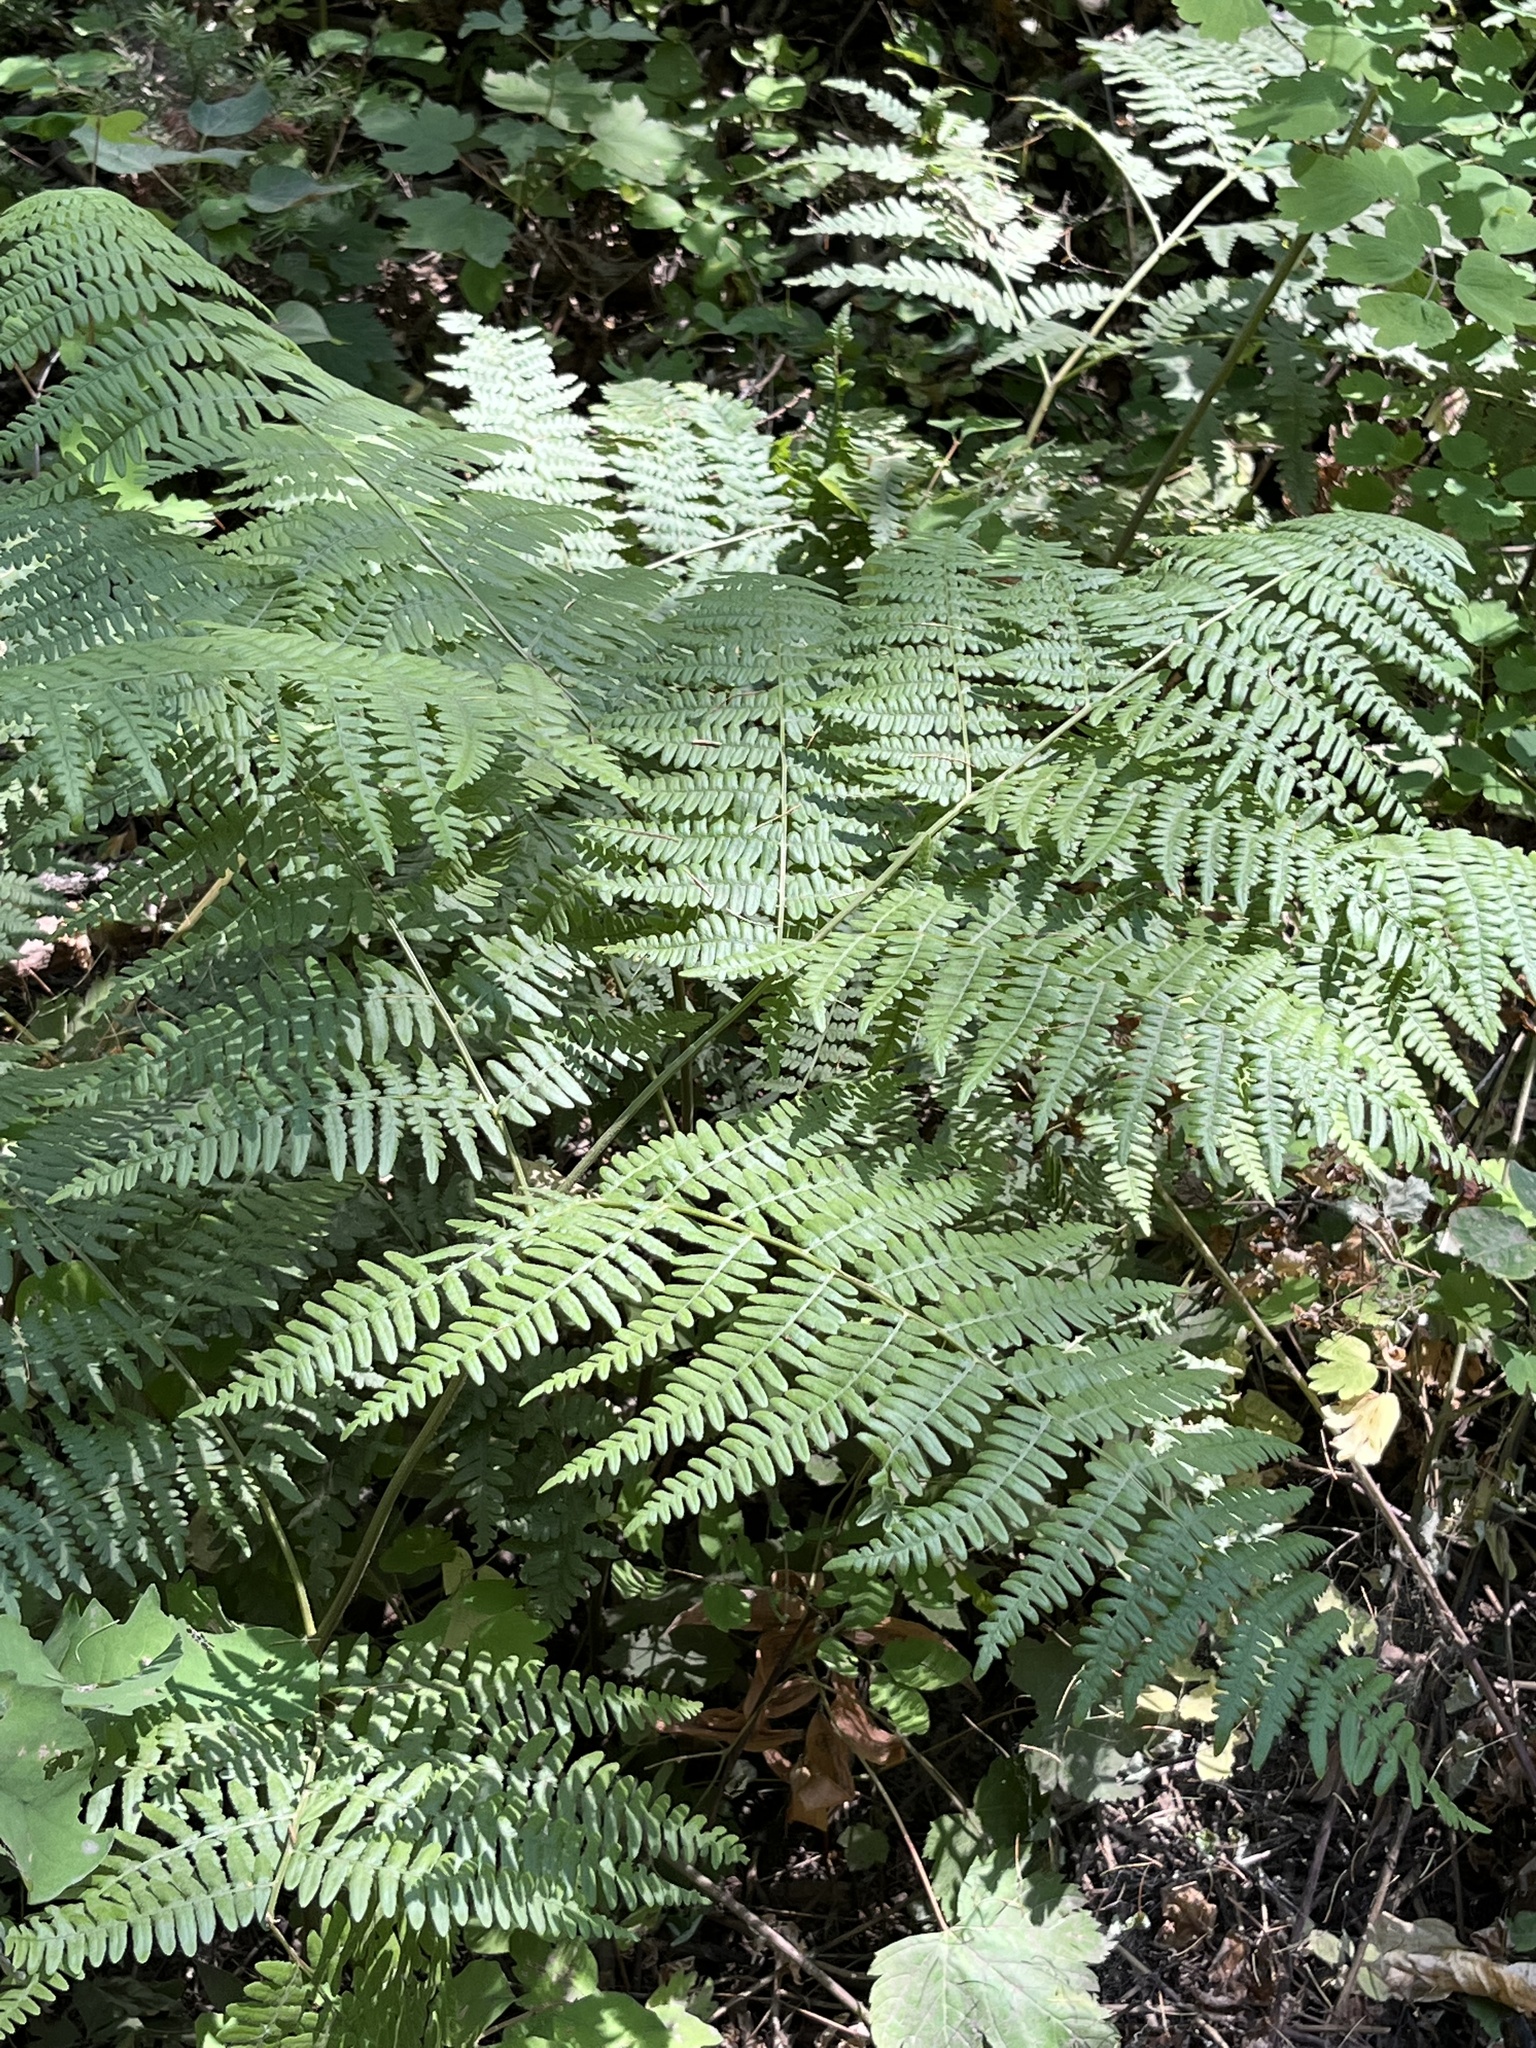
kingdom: Plantae
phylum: Tracheophyta
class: Polypodiopsida
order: Polypodiales
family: Dennstaedtiaceae
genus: Pteridium
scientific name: Pteridium aquilinum
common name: Bracken
